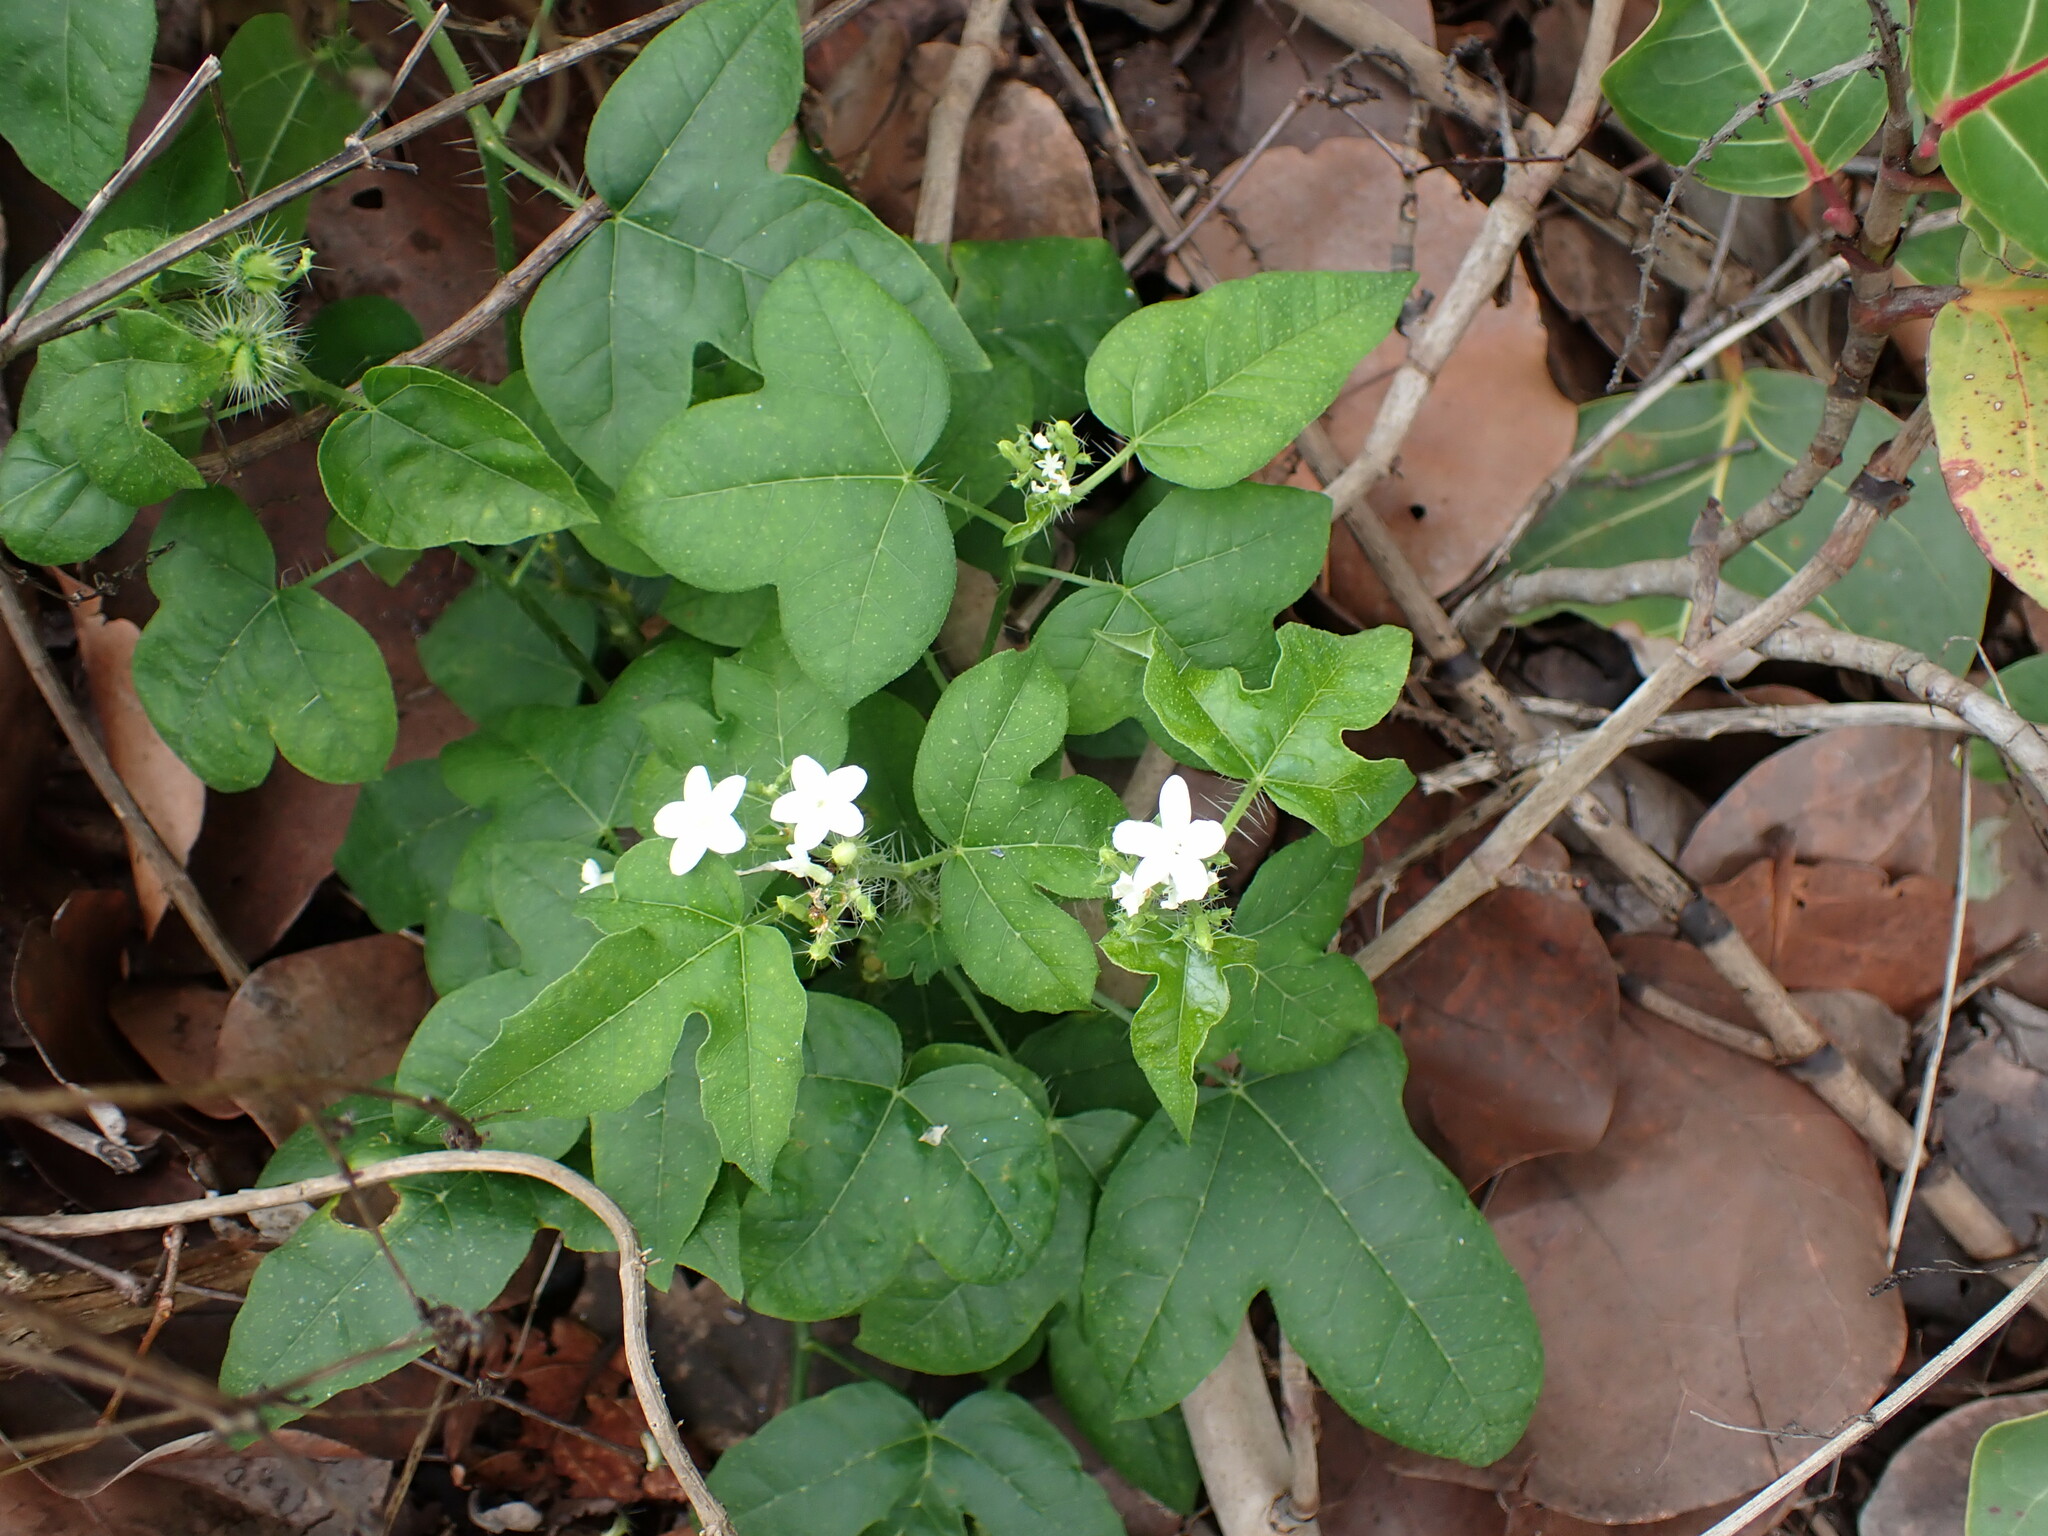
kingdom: Plantae
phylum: Tracheophyta
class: Magnoliopsida
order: Malpighiales
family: Euphorbiaceae
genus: Cnidoscolus
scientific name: Cnidoscolus stimulosus
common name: Bull-nettle
